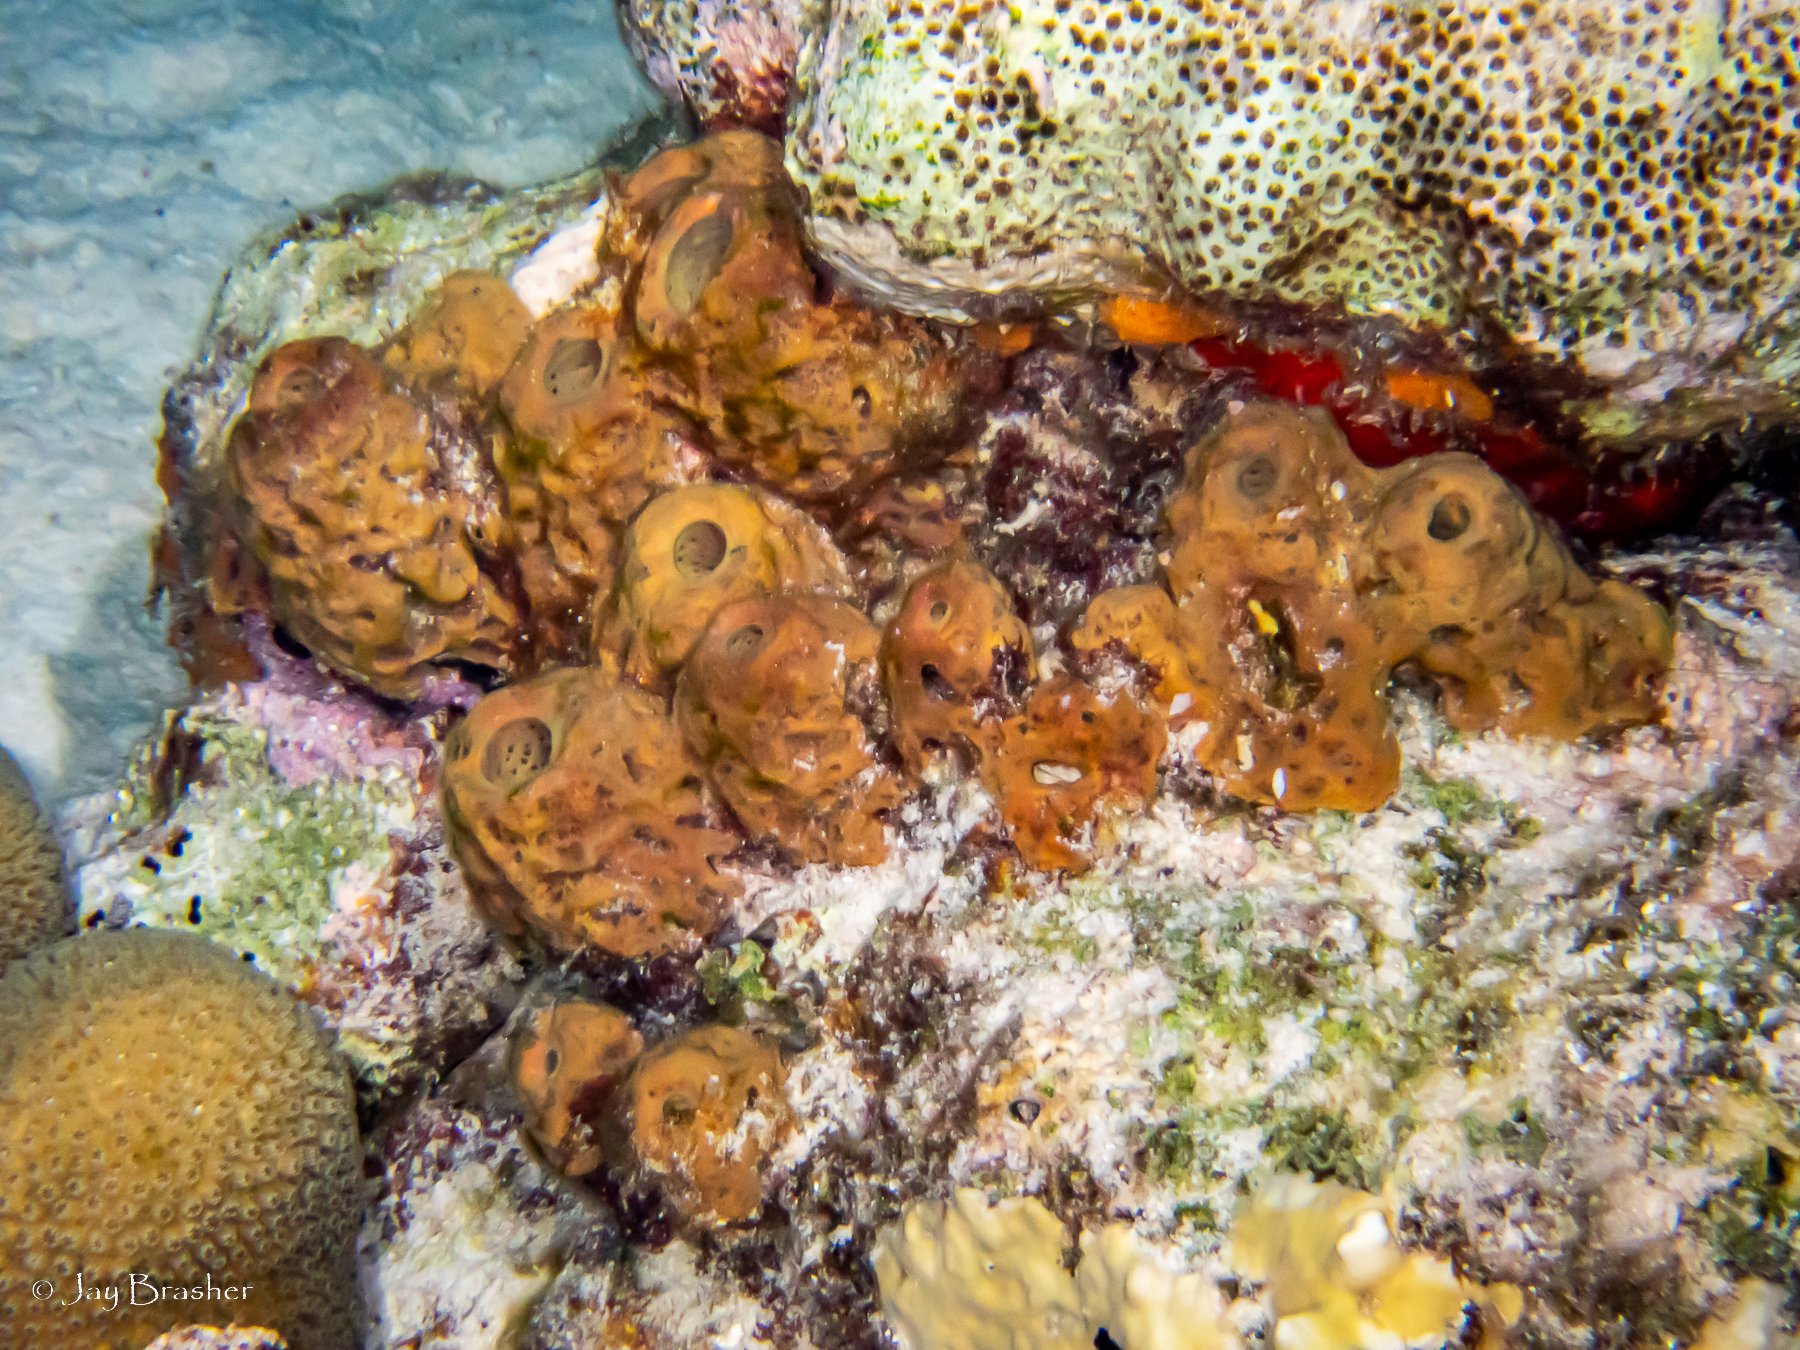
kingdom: Animalia
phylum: Porifera
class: Demospongiae
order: Verongiida
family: Aplysinidae
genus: Verongula
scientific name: Verongula rigida
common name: Pitted sponge
